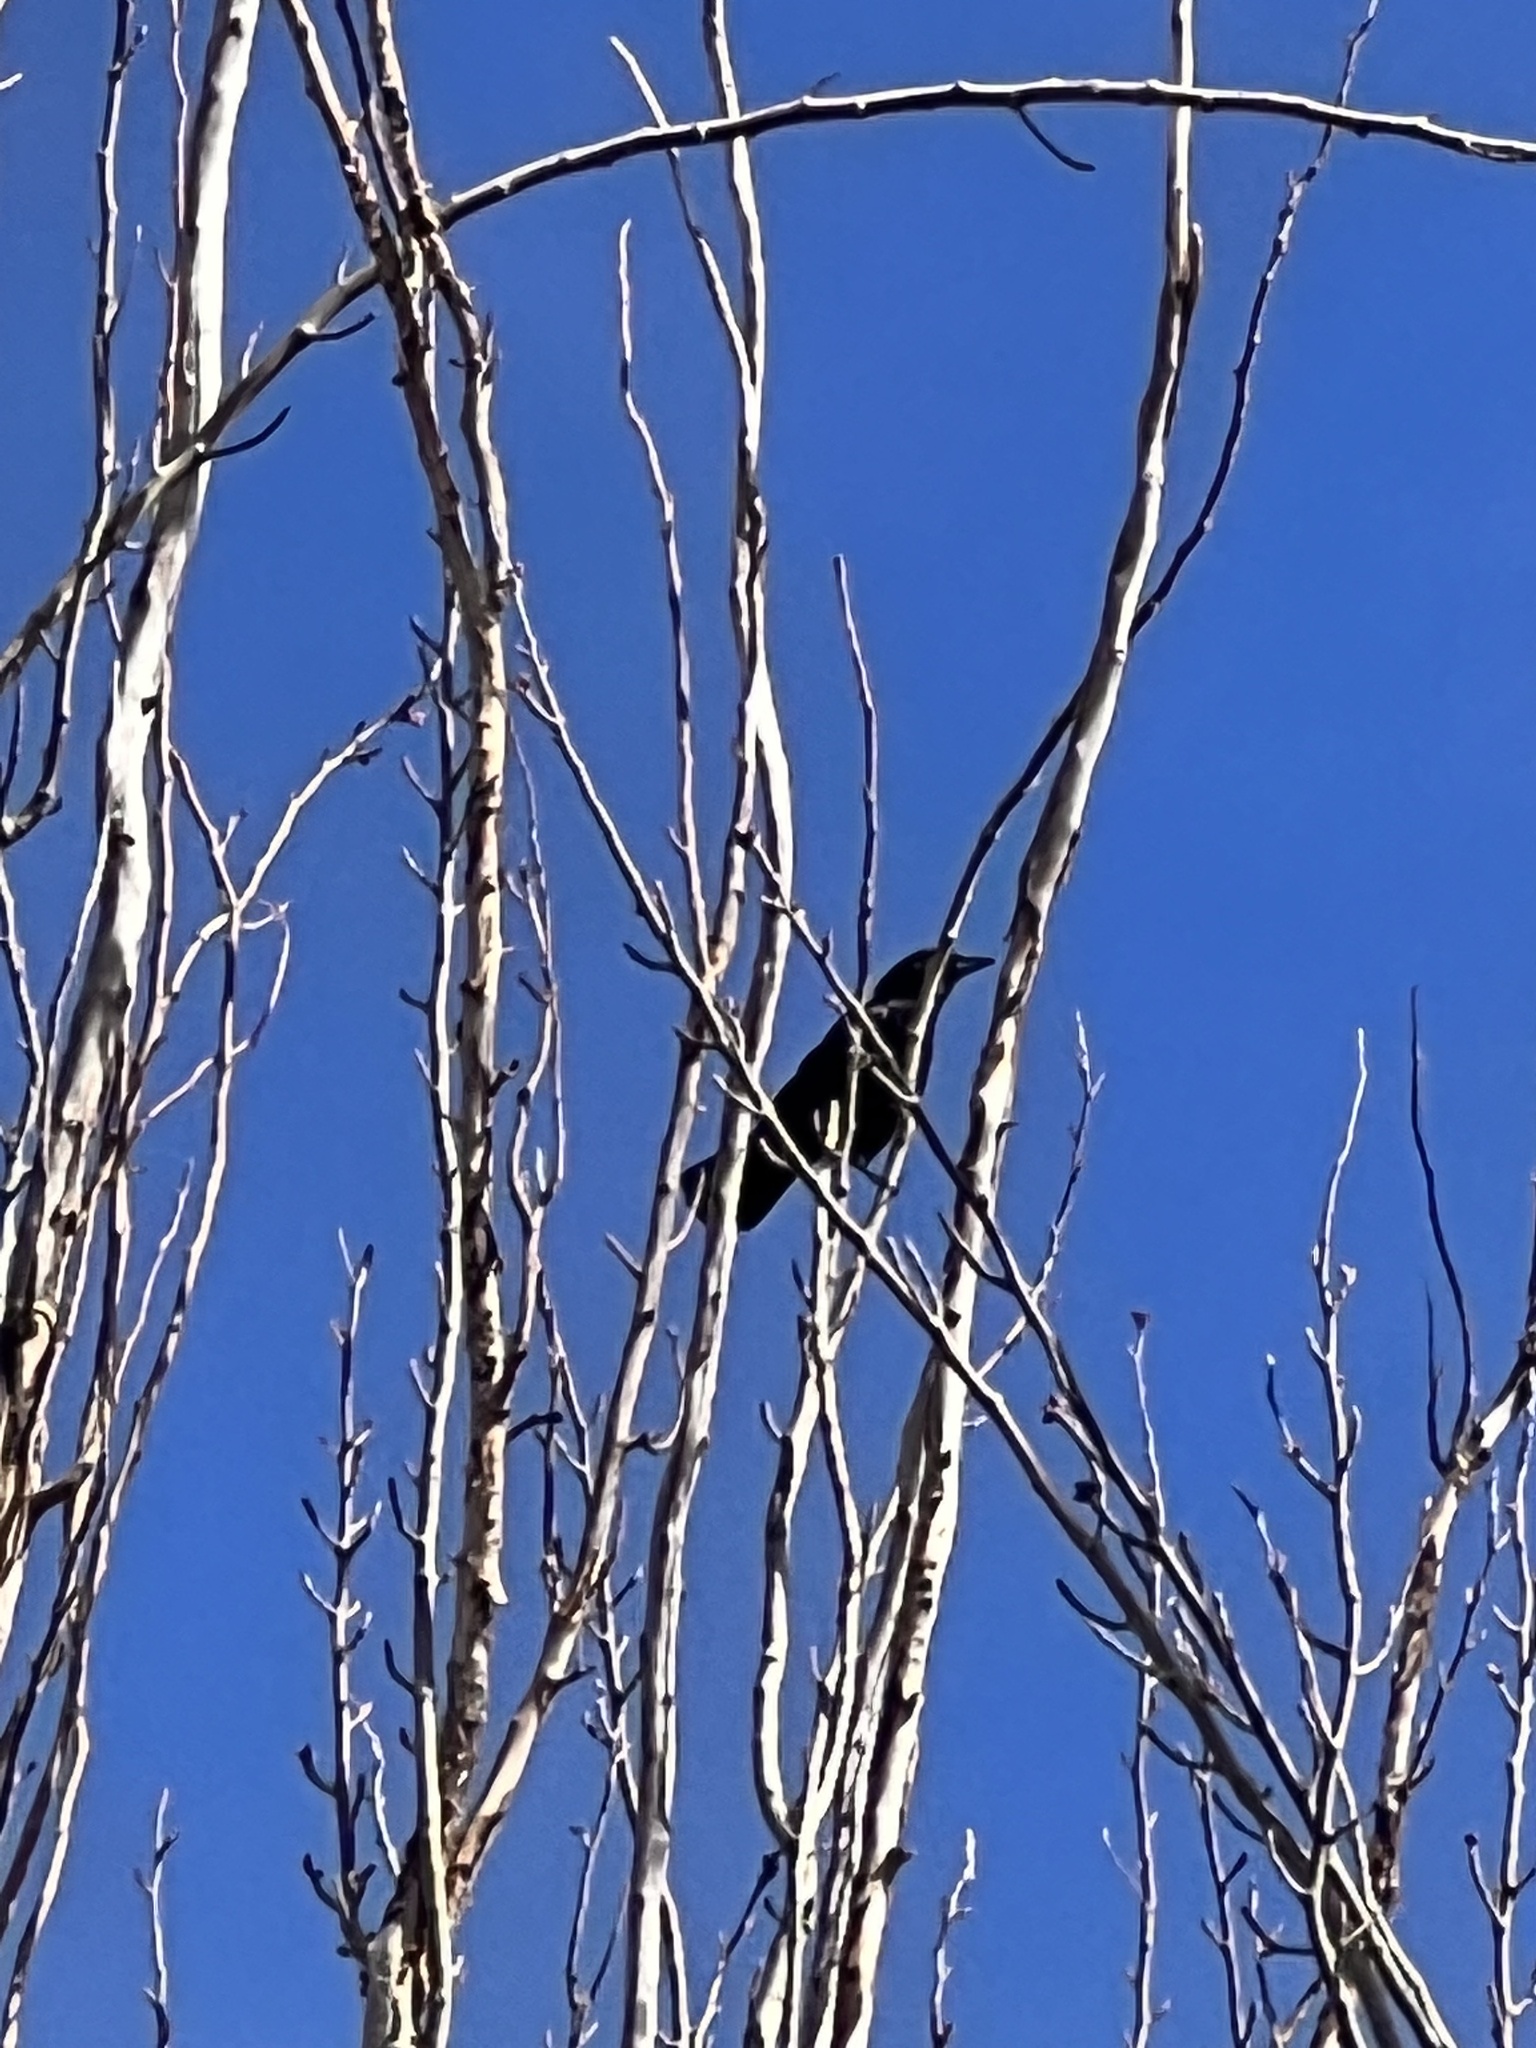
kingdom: Animalia
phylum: Chordata
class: Aves
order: Passeriformes
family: Corvidae
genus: Corvus
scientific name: Corvus brachyrhynchos
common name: American crow
